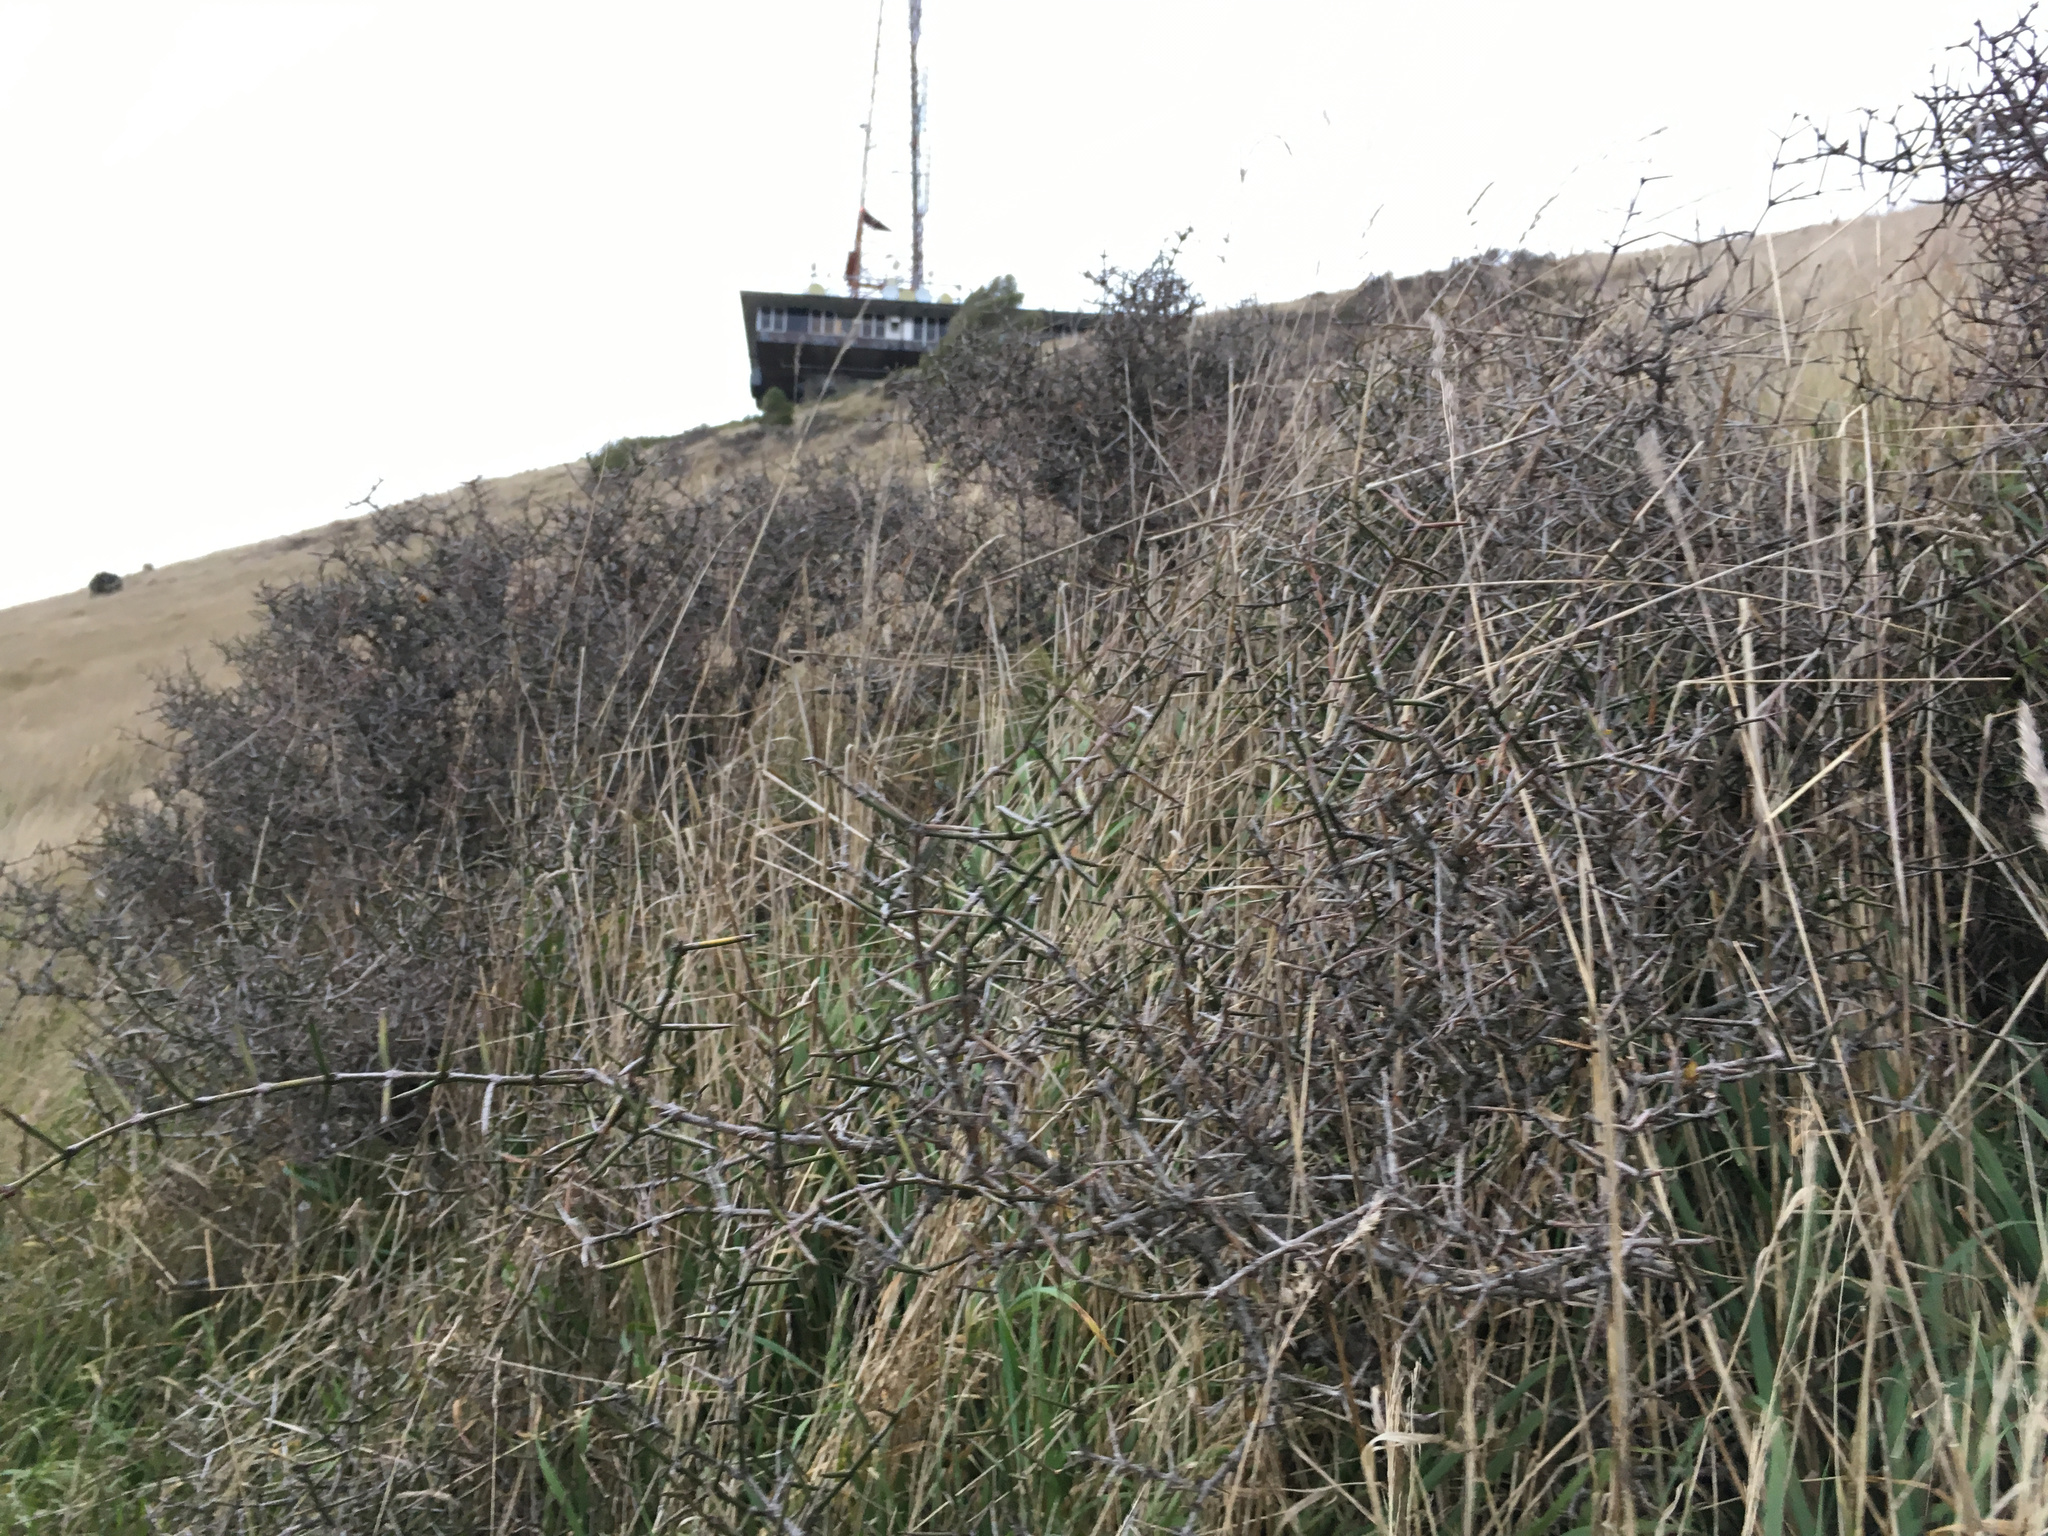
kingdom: Plantae
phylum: Tracheophyta
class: Magnoliopsida
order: Rosales
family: Rhamnaceae
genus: Discaria
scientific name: Discaria toumatou
